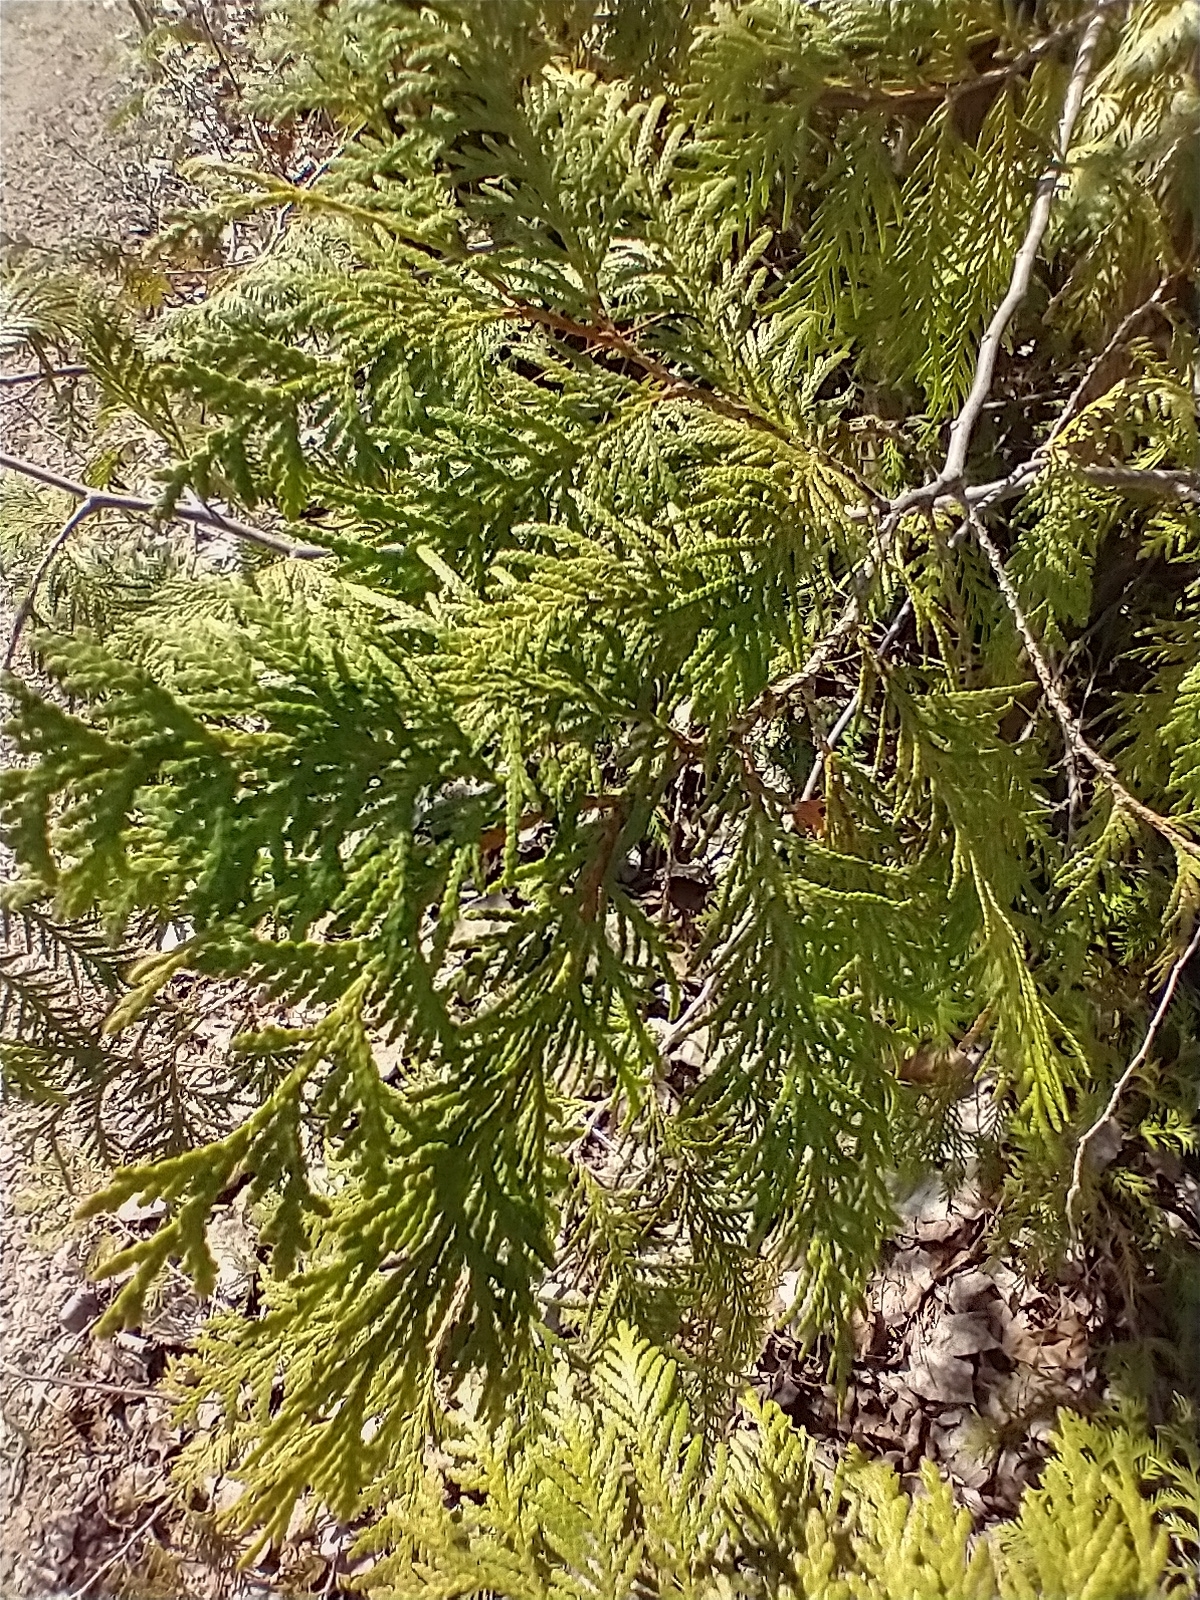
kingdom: Plantae
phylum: Tracheophyta
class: Pinopsida
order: Pinales
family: Cupressaceae
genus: Thuja
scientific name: Thuja occidentalis
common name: Northern white-cedar
